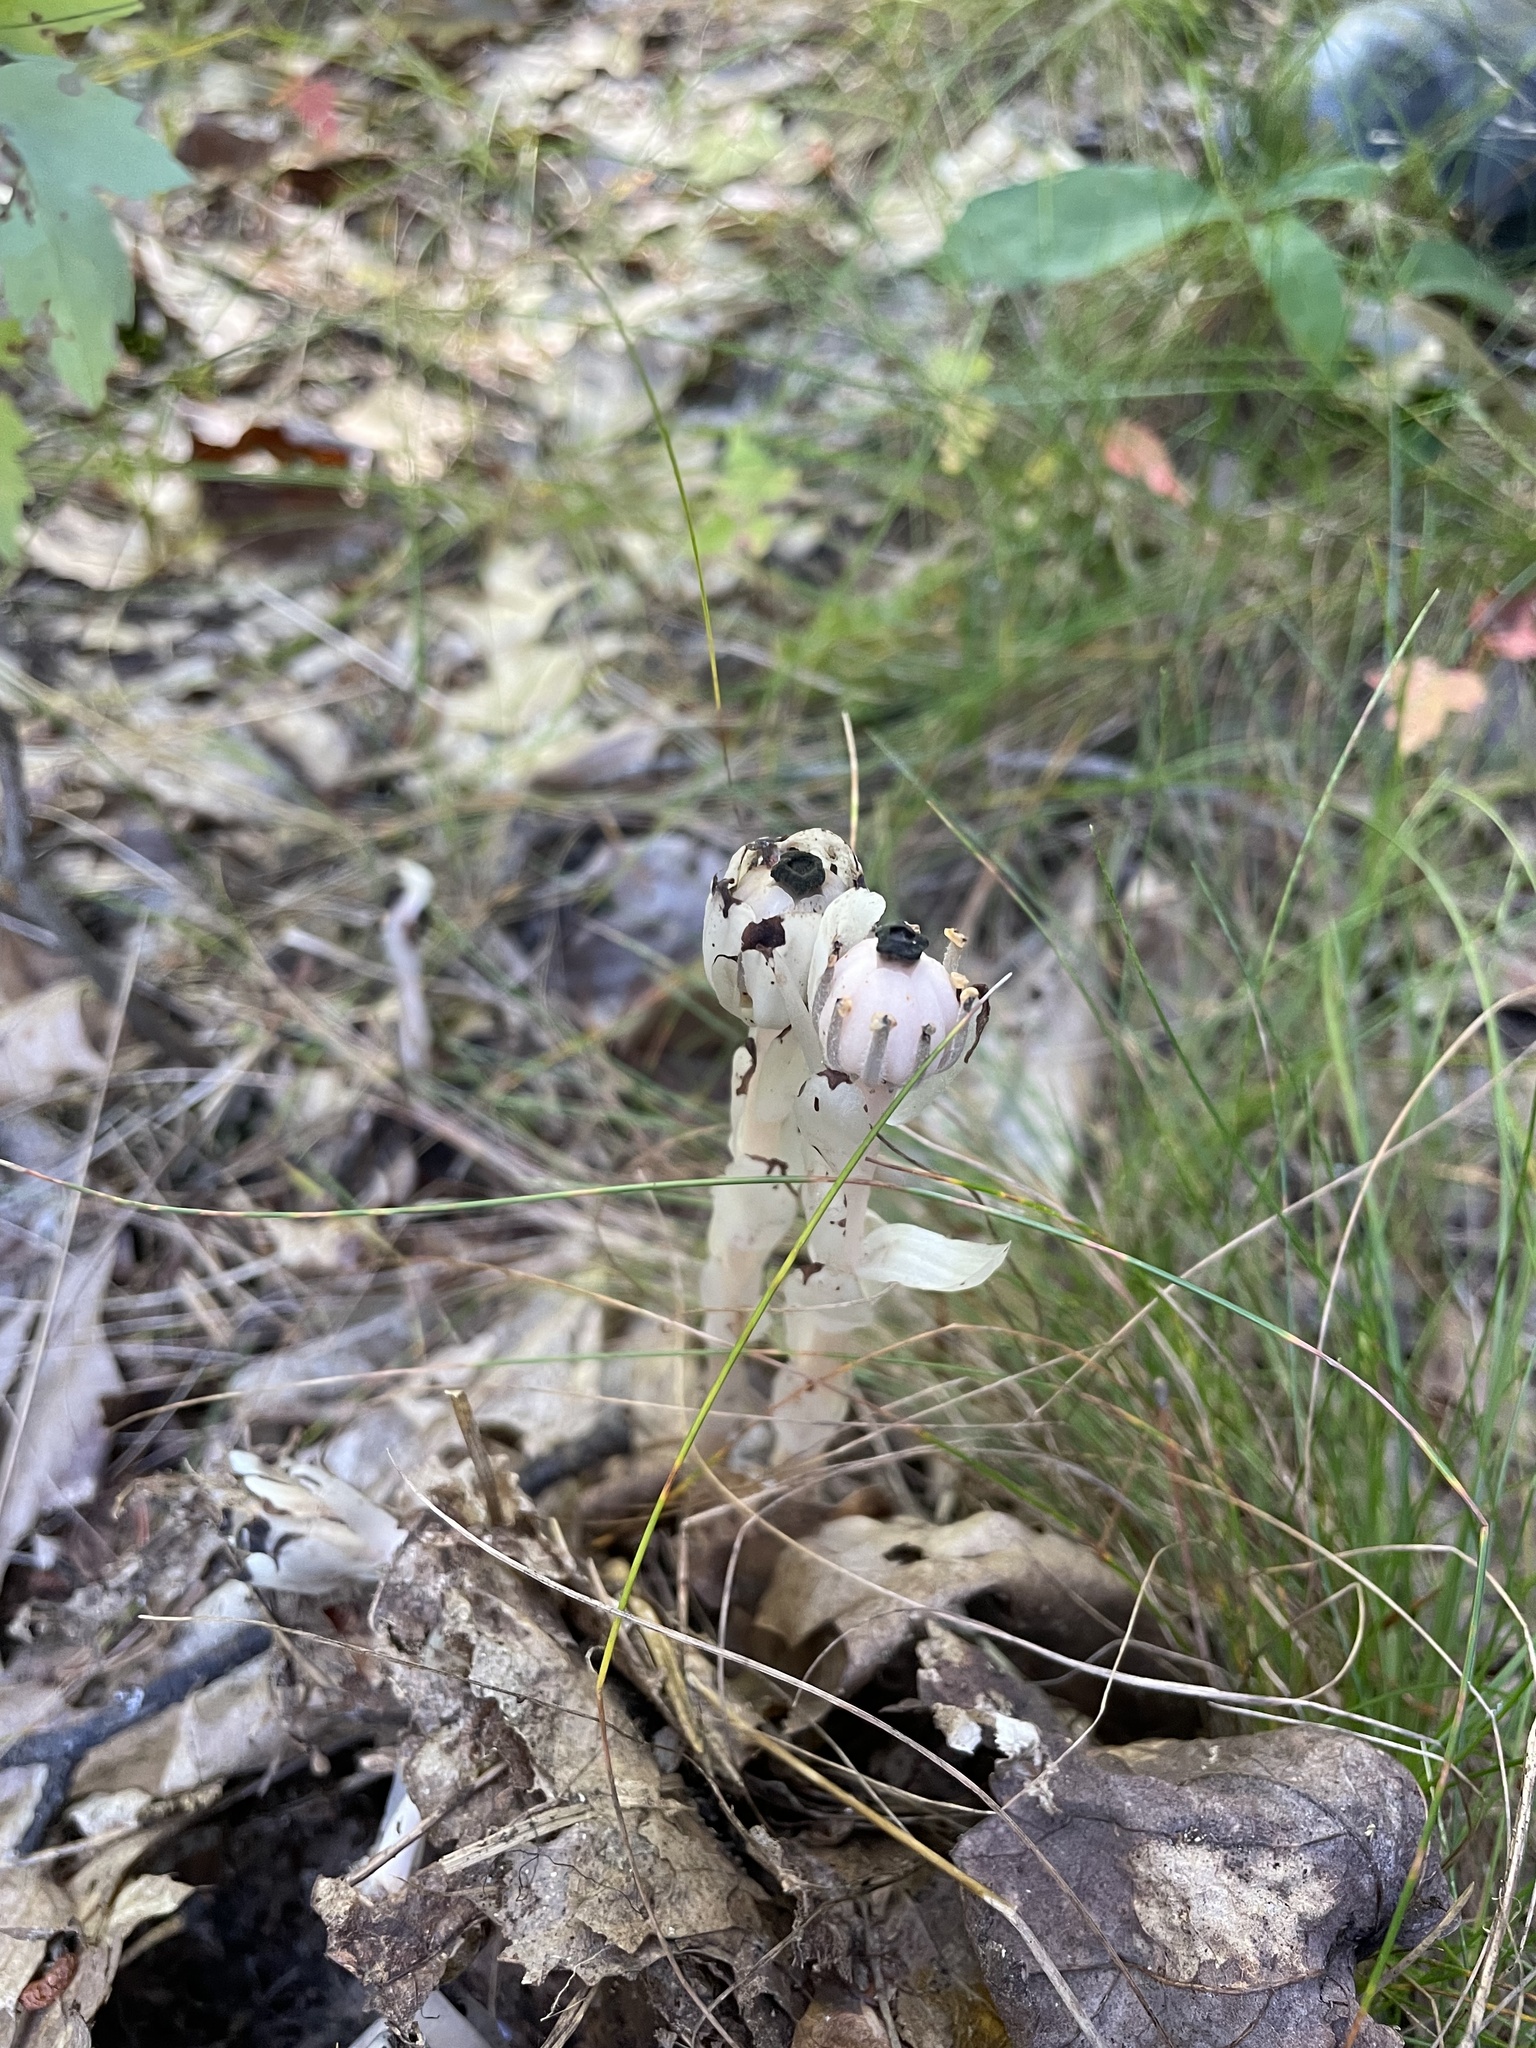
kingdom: Plantae
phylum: Tracheophyta
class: Magnoliopsida
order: Ericales
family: Ericaceae
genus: Monotropa
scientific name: Monotropa uniflora
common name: Convulsion root
